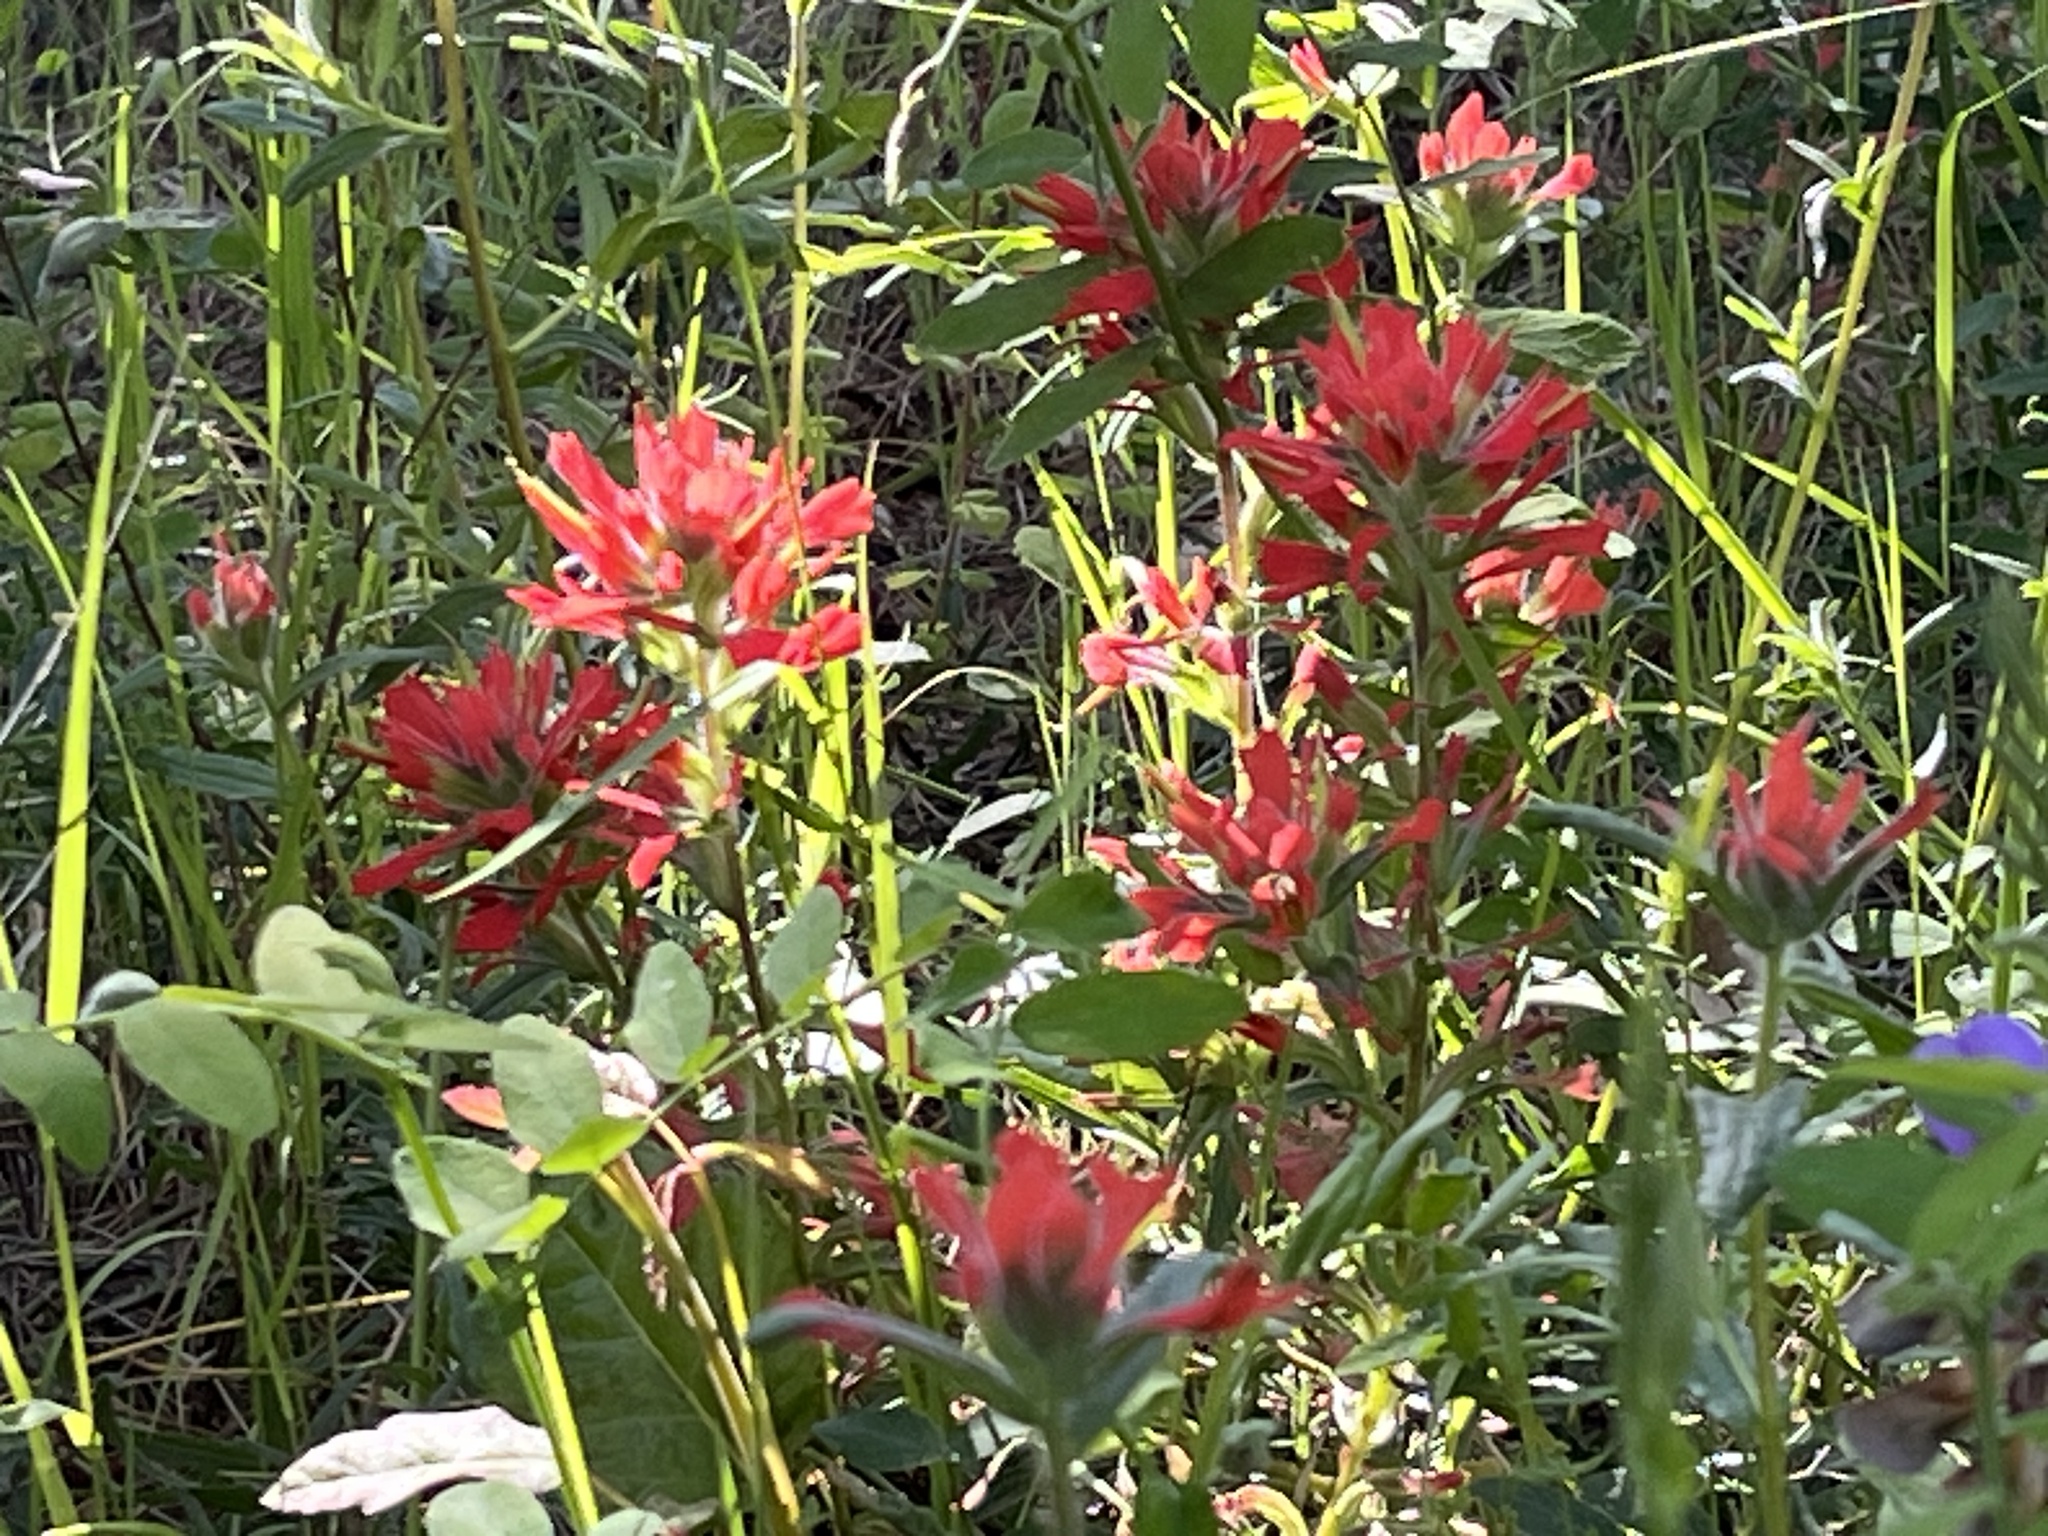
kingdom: Plantae
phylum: Tracheophyta
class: Magnoliopsida
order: Lamiales
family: Orobanchaceae
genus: Castilleja
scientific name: Castilleja affinis
